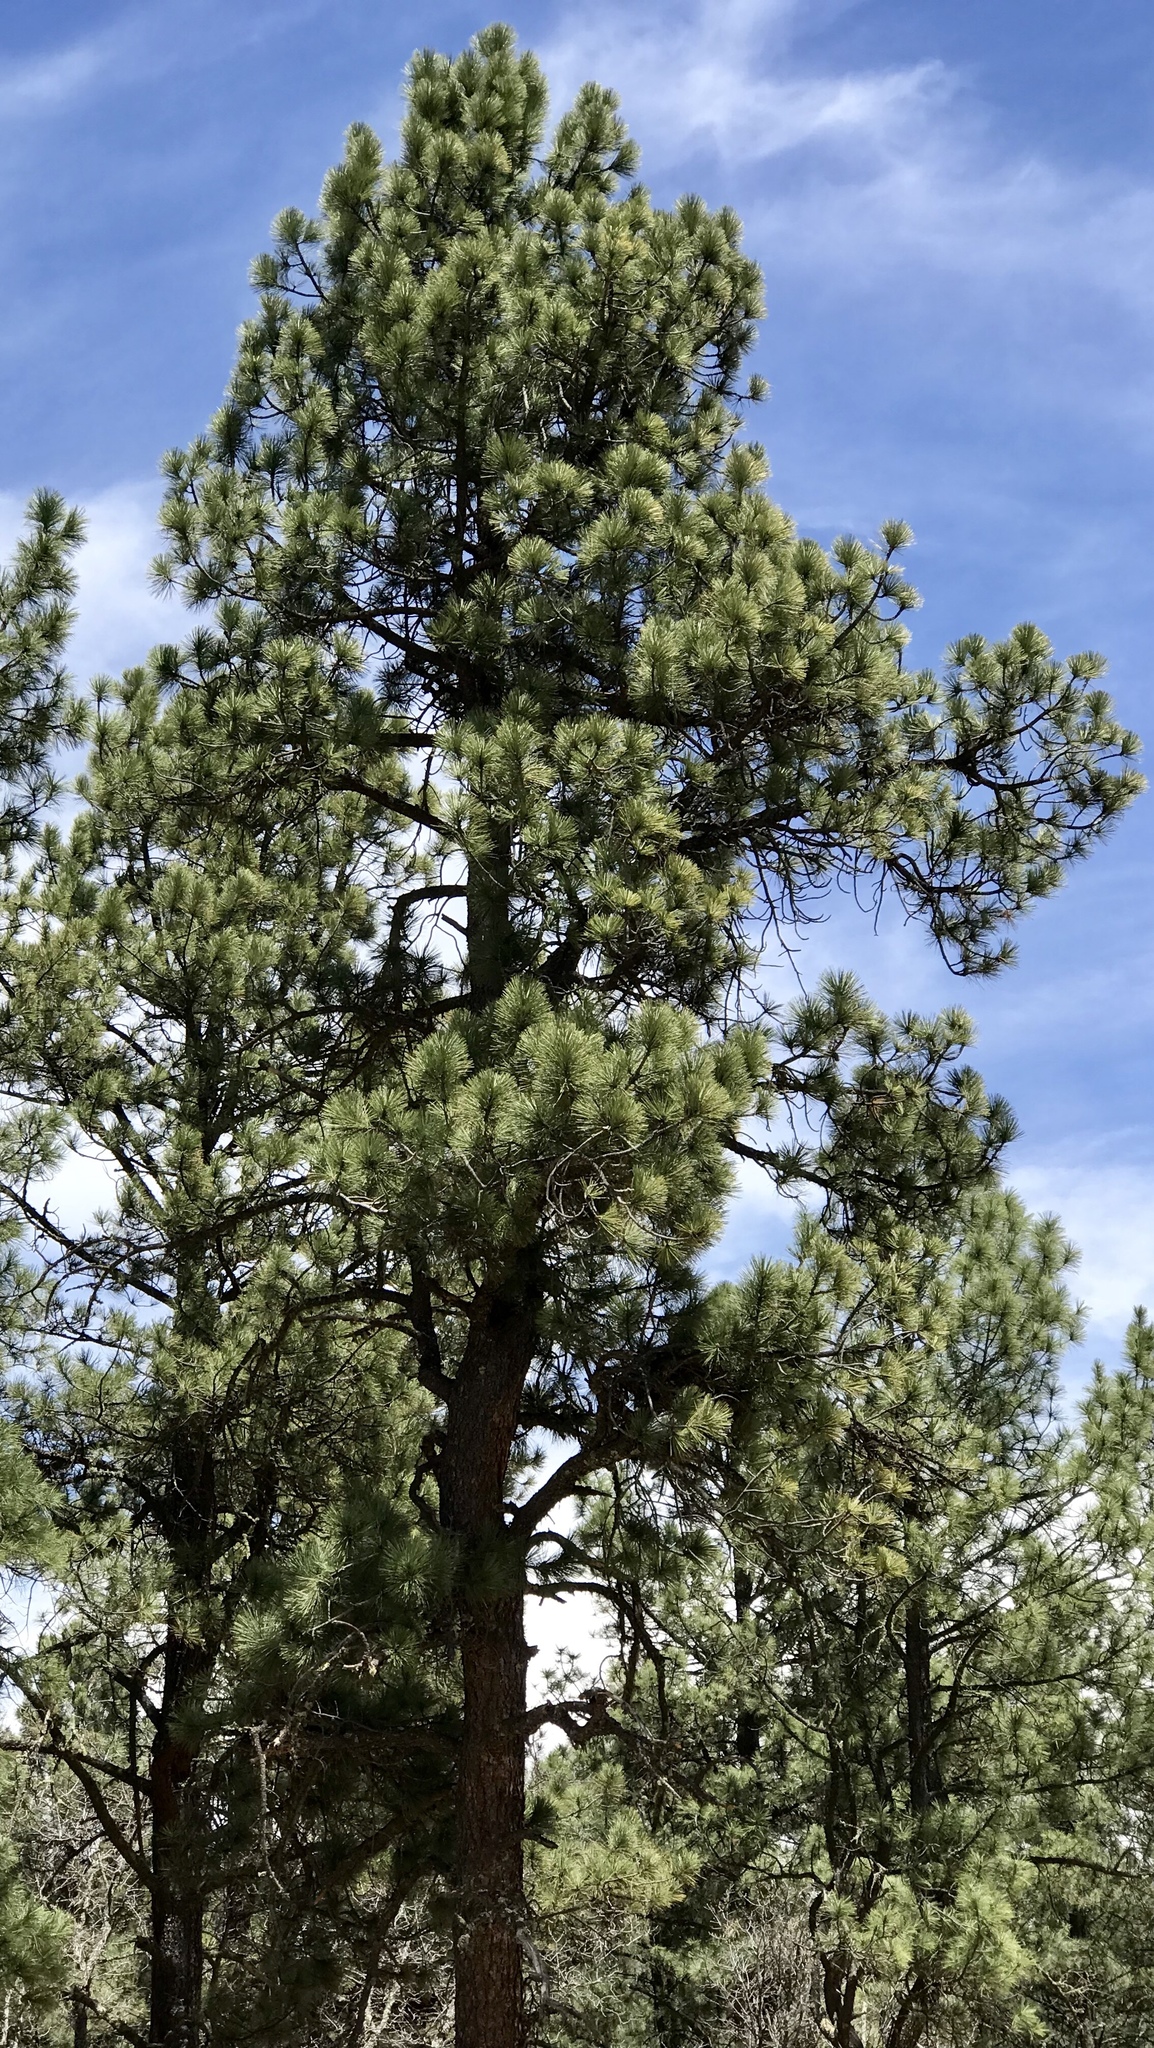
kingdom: Plantae
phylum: Tracheophyta
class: Pinopsida
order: Pinales
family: Pinaceae
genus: Pinus
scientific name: Pinus ponderosa
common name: Western yellow-pine
